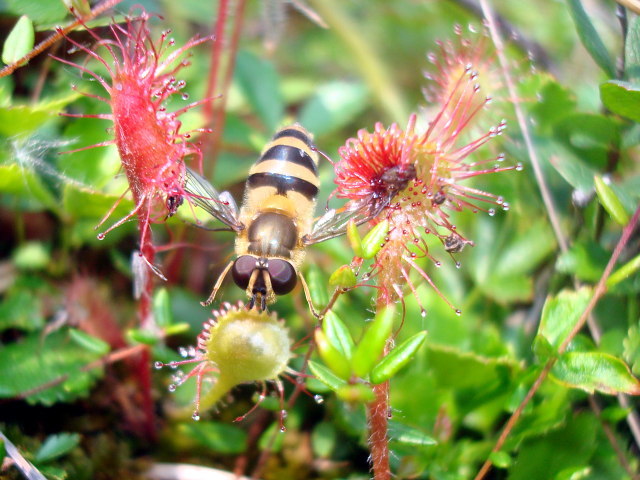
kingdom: Plantae
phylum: Tracheophyta
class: Magnoliopsida
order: Caryophyllales
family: Droseraceae
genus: Drosera
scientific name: Drosera rotundifolia
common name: Round-leaved sundew
